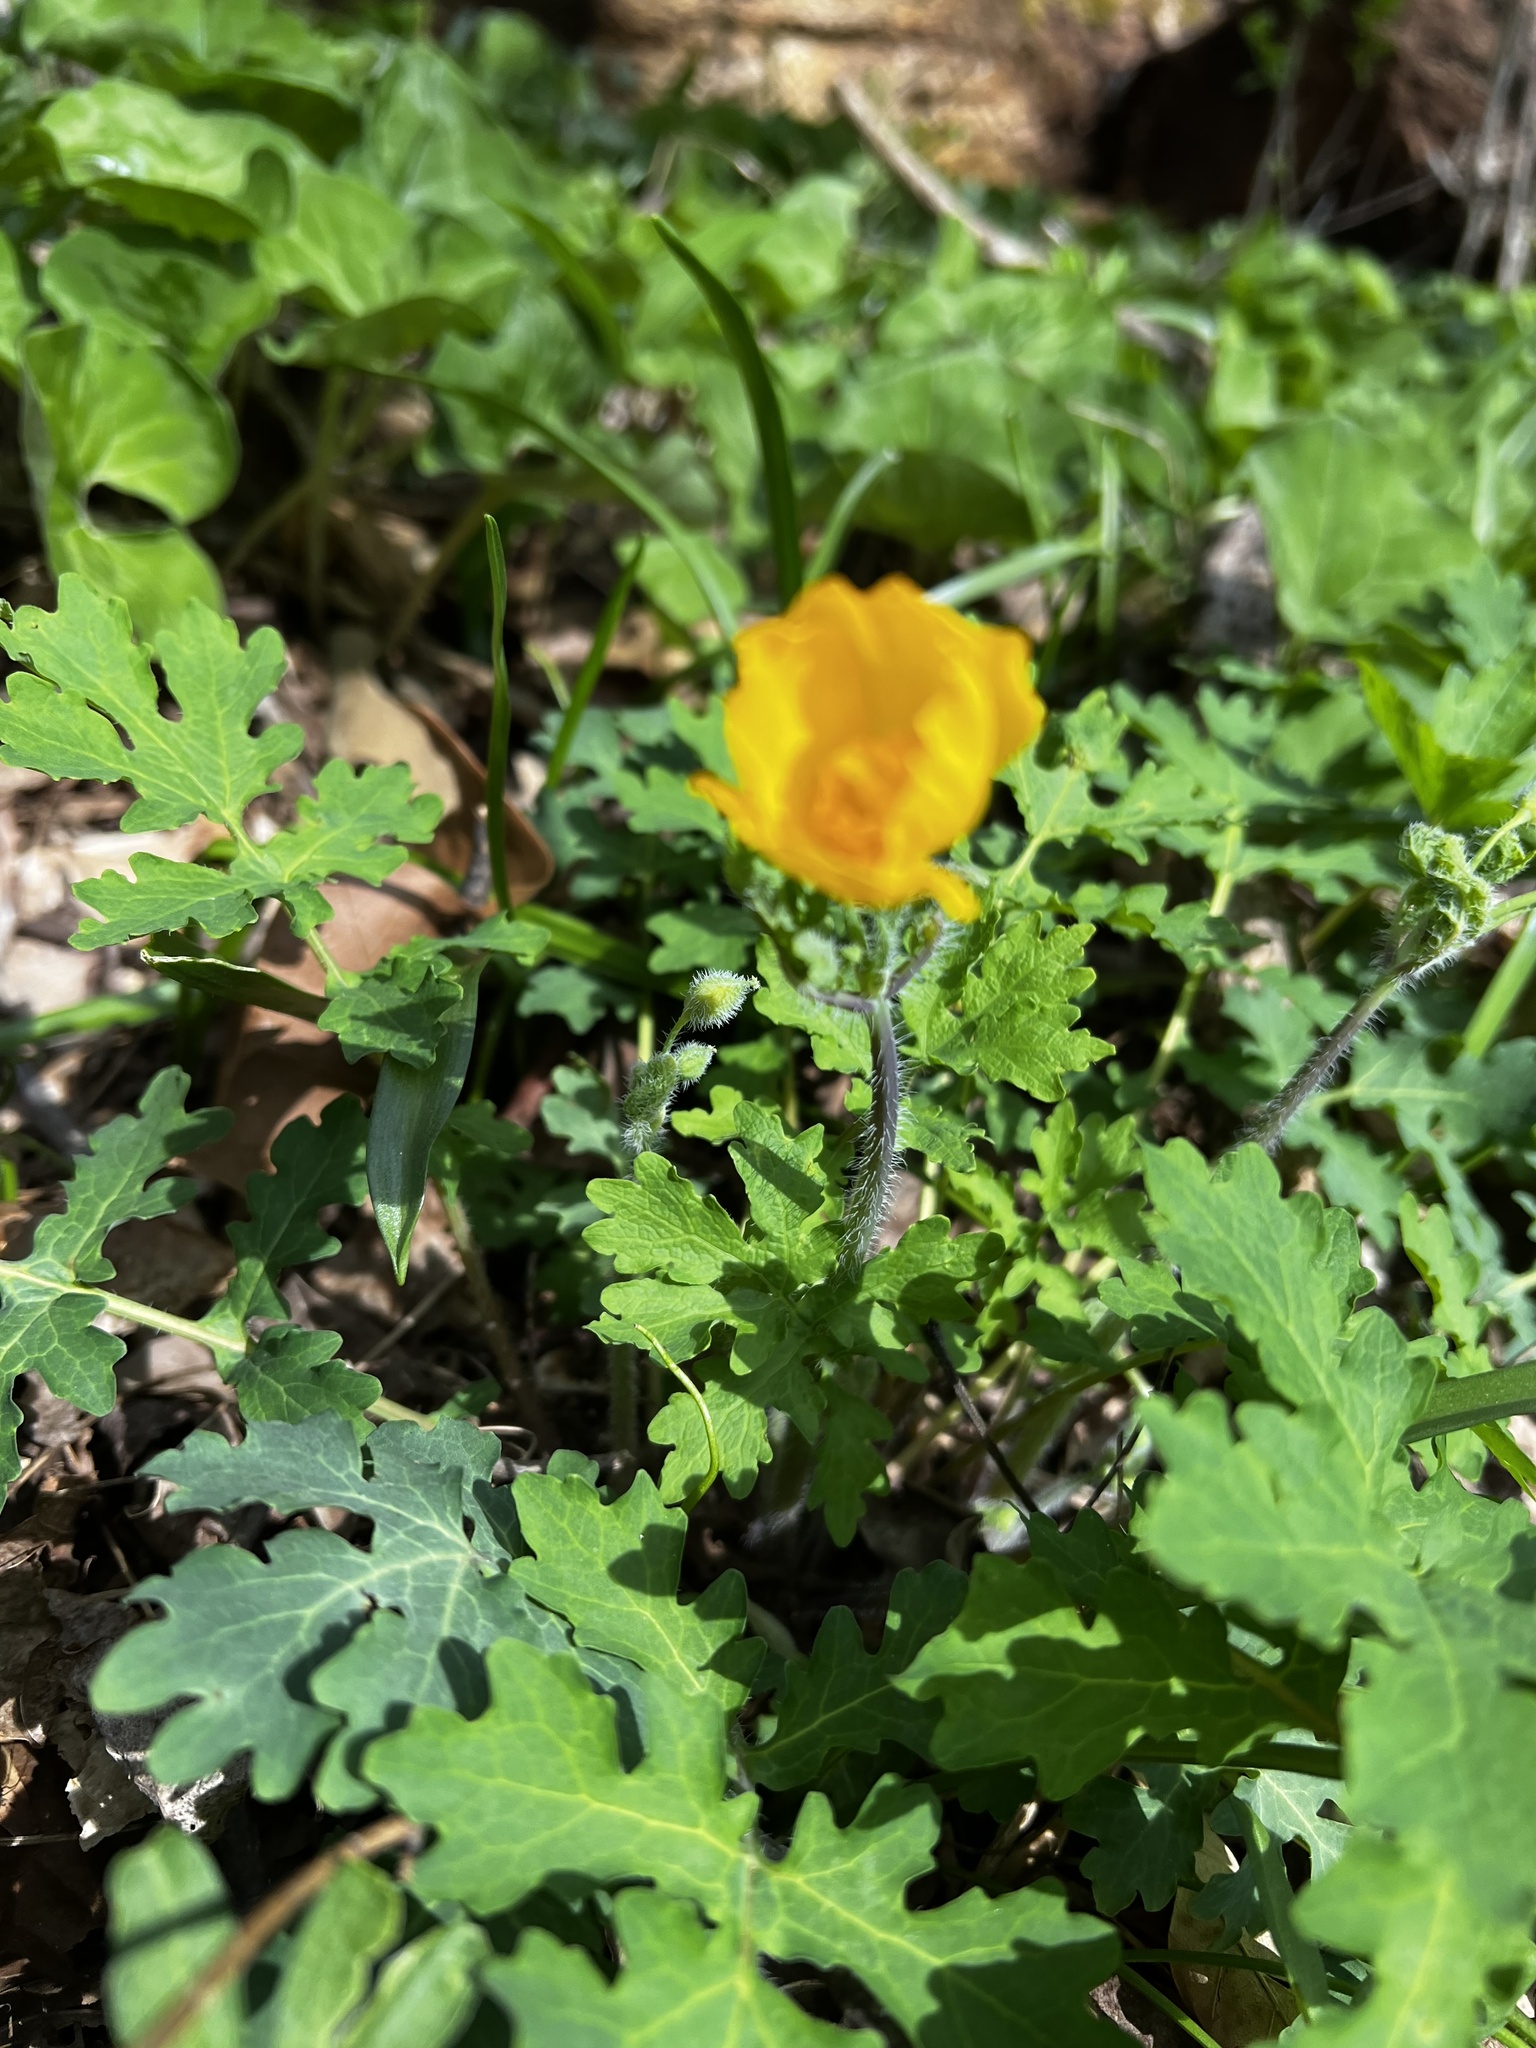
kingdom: Plantae
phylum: Tracheophyta
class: Magnoliopsida
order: Ranunculales
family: Papaveraceae
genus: Stylophorum
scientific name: Stylophorum diphyllum
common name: Celandine poppy
